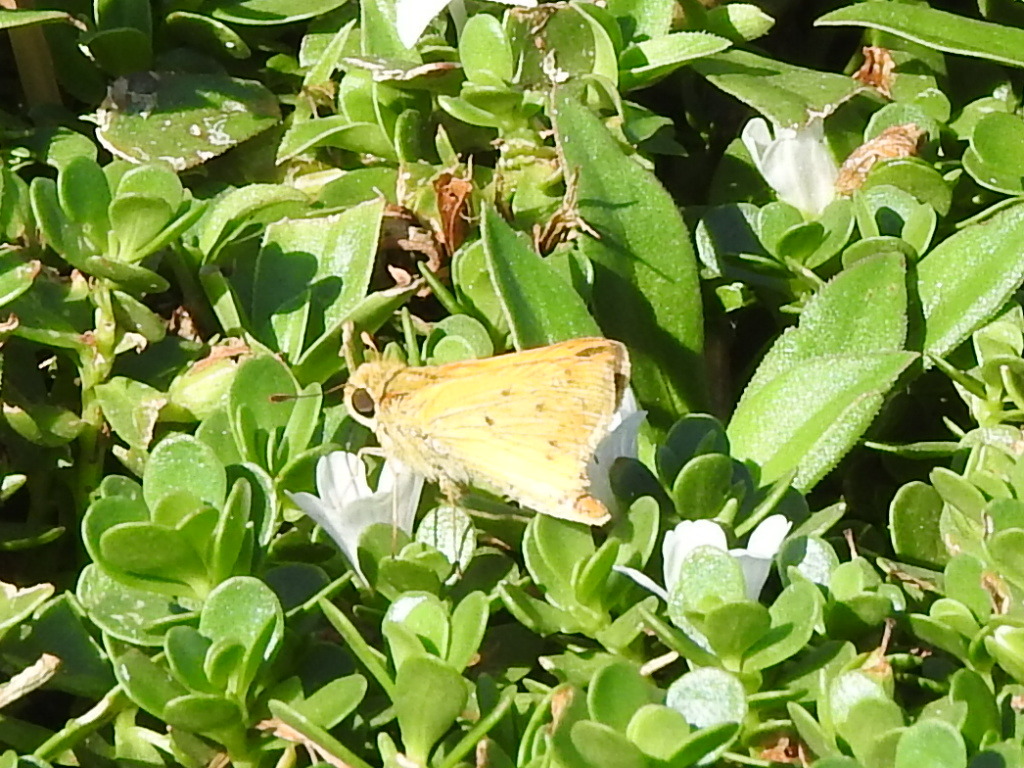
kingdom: Animalia
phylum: Arthropoda
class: Insecta
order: Lepidoptera
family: Hesperiidae
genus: Hylephila
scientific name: Hylephila phyleus
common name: Fiery skipper
